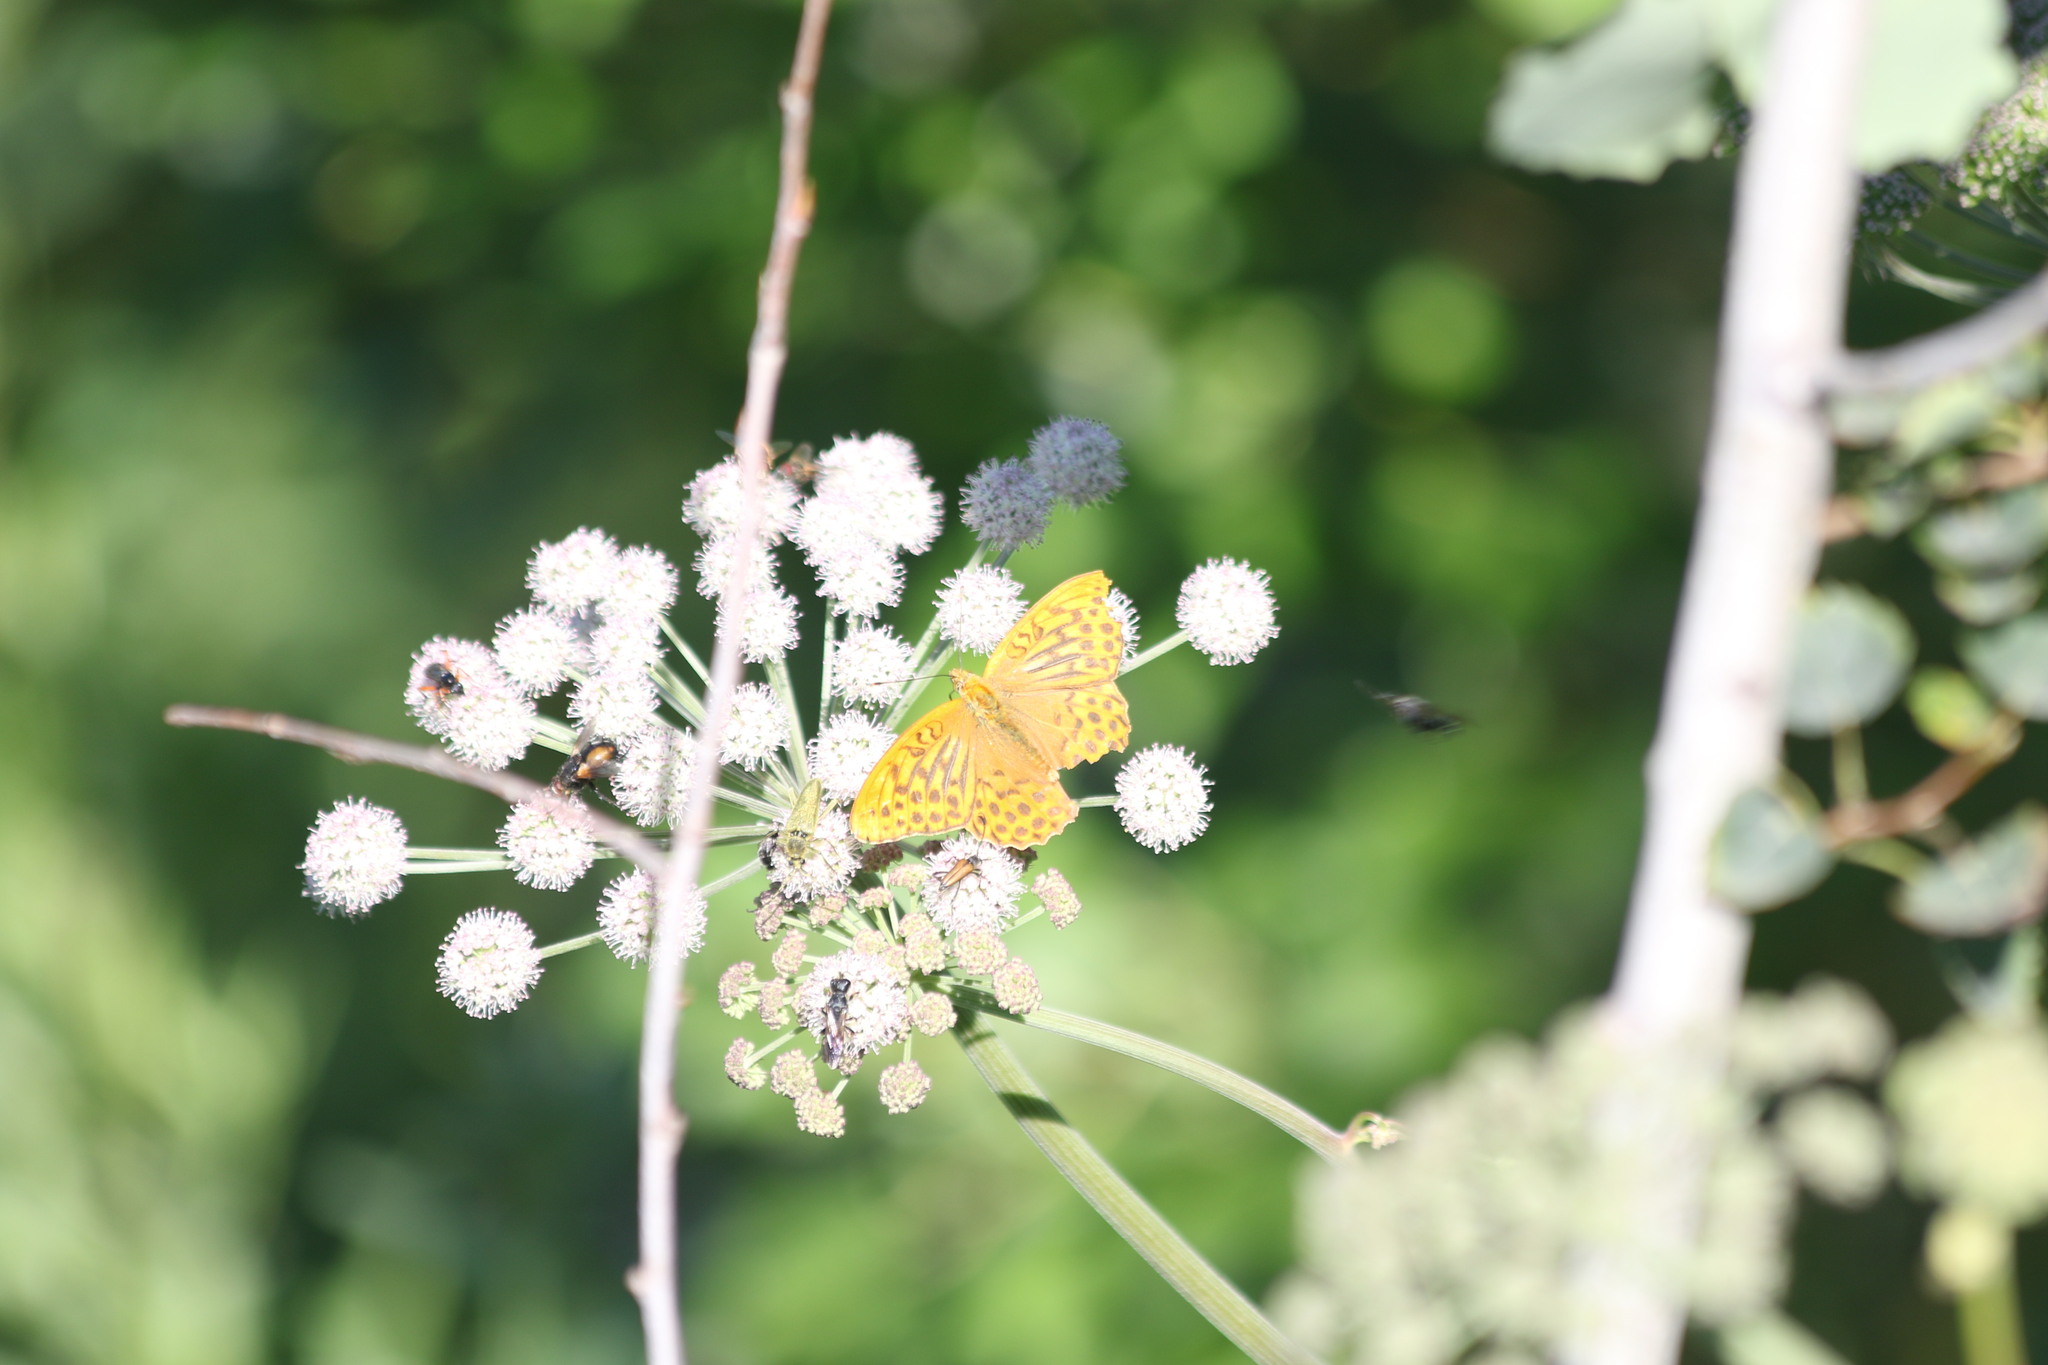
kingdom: Animalia
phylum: Arthropoda
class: Insecta
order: Lepidoptera
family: Nymphalidae
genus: Argynnis
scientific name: Argynnis paphia
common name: Silver-washed fritillary
